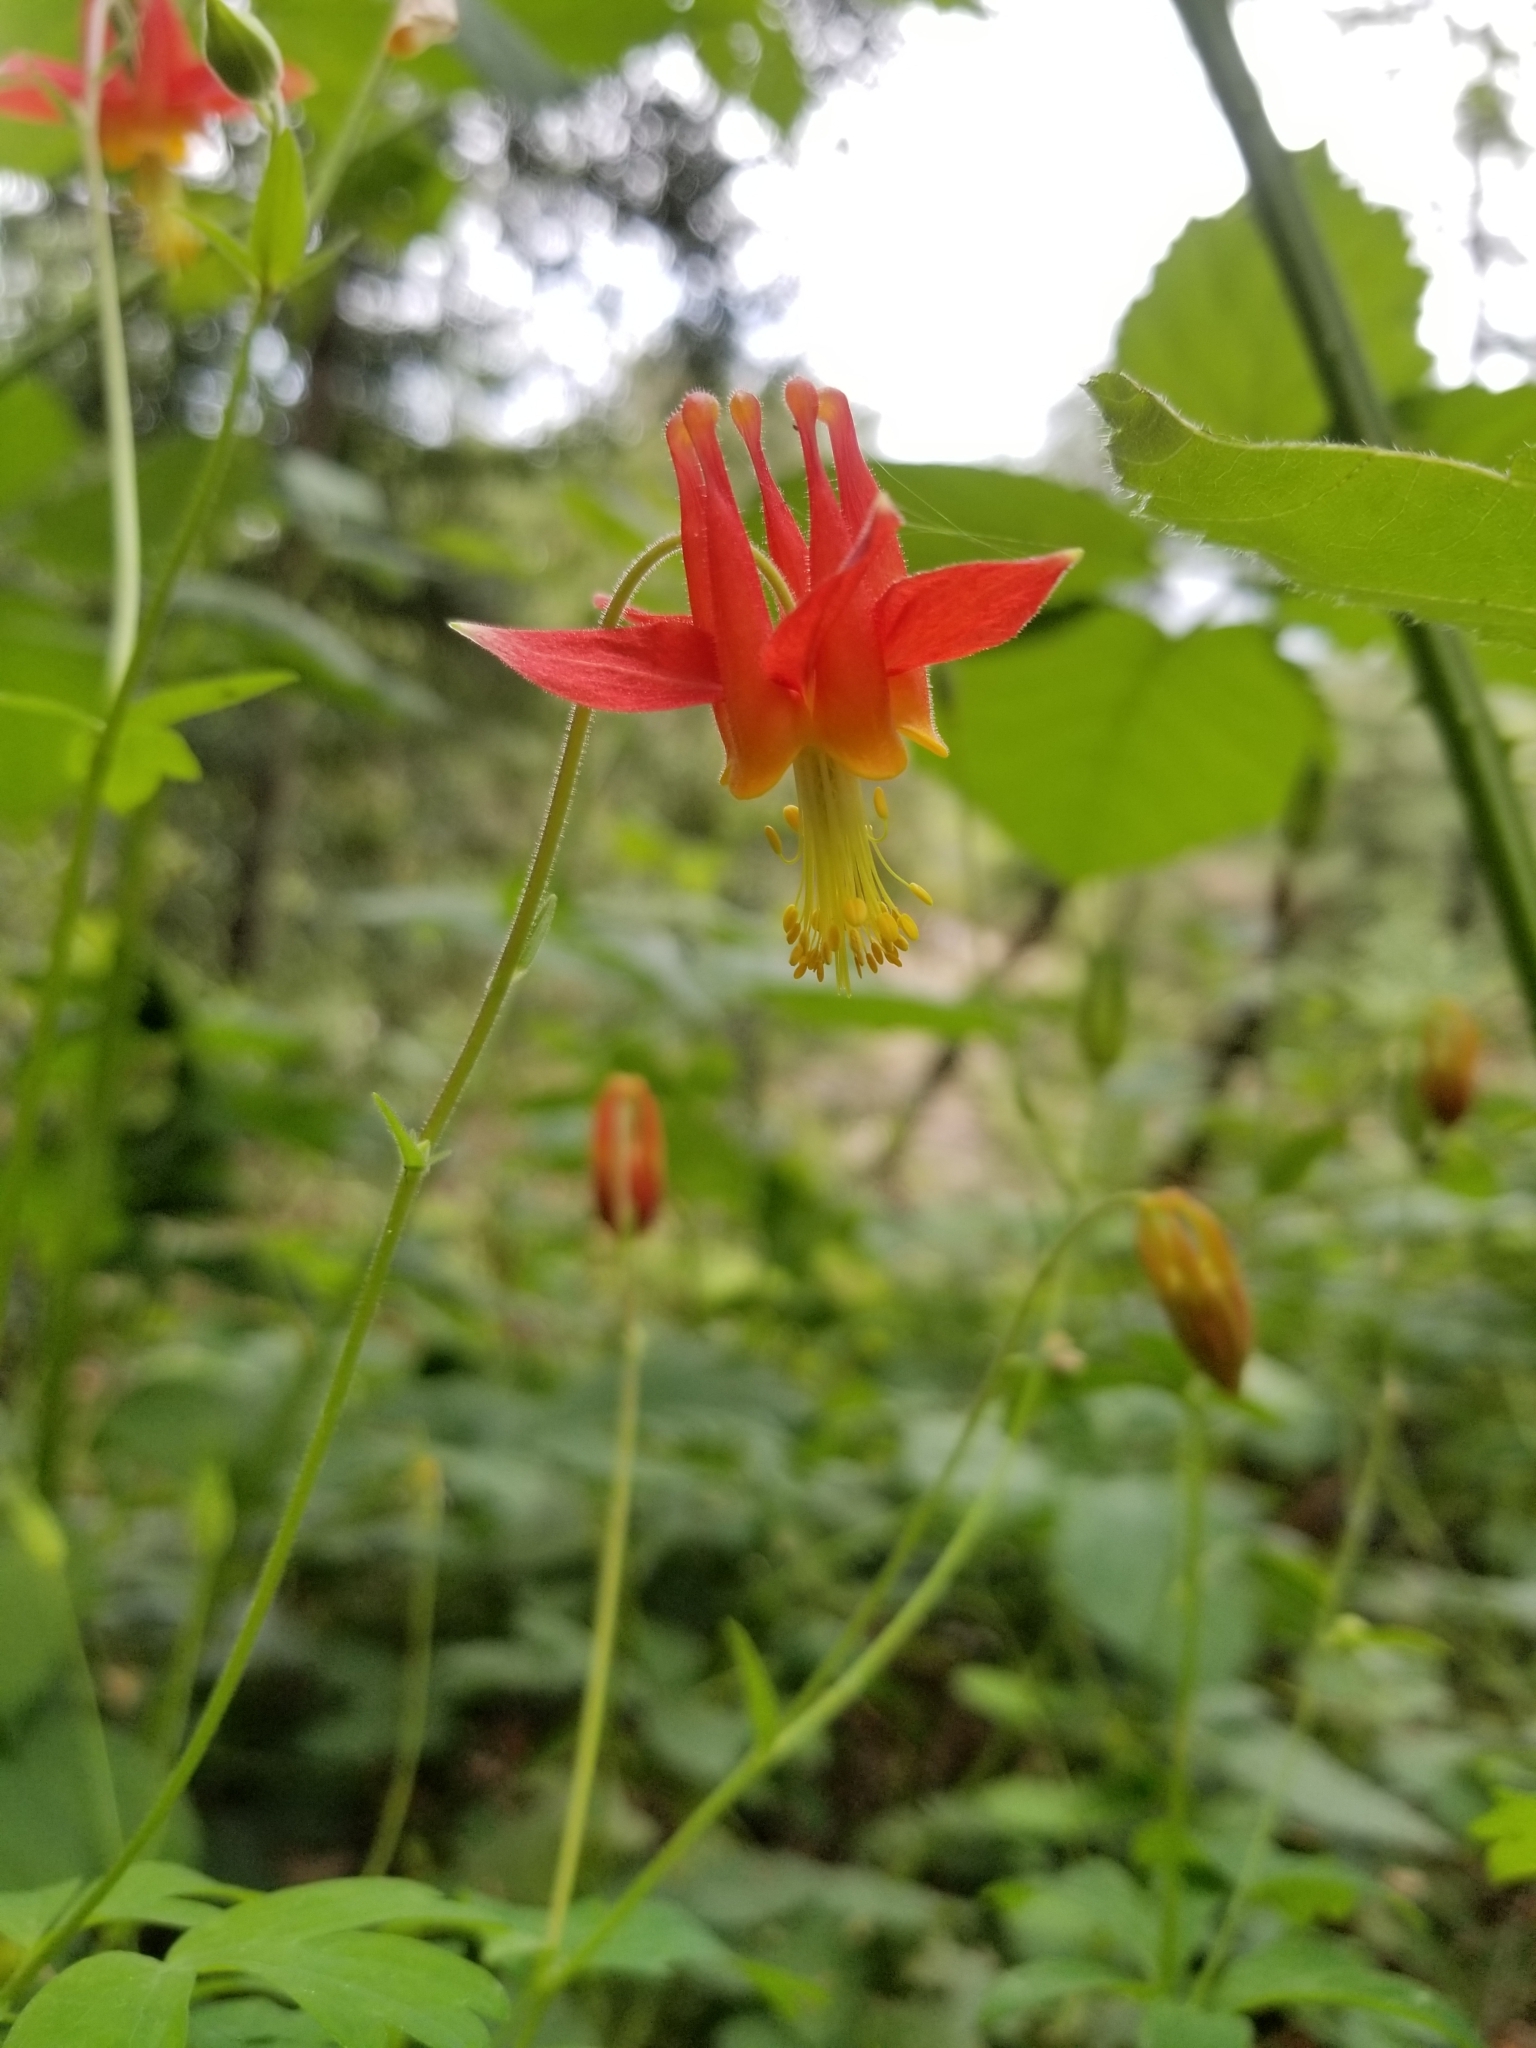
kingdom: Plantae
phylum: Tracheophyta
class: Magnoliopsida
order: Ranunculales
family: Ranunculaceae
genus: Aquilegia
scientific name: Aquilegia formosa
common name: Sitka columbine
